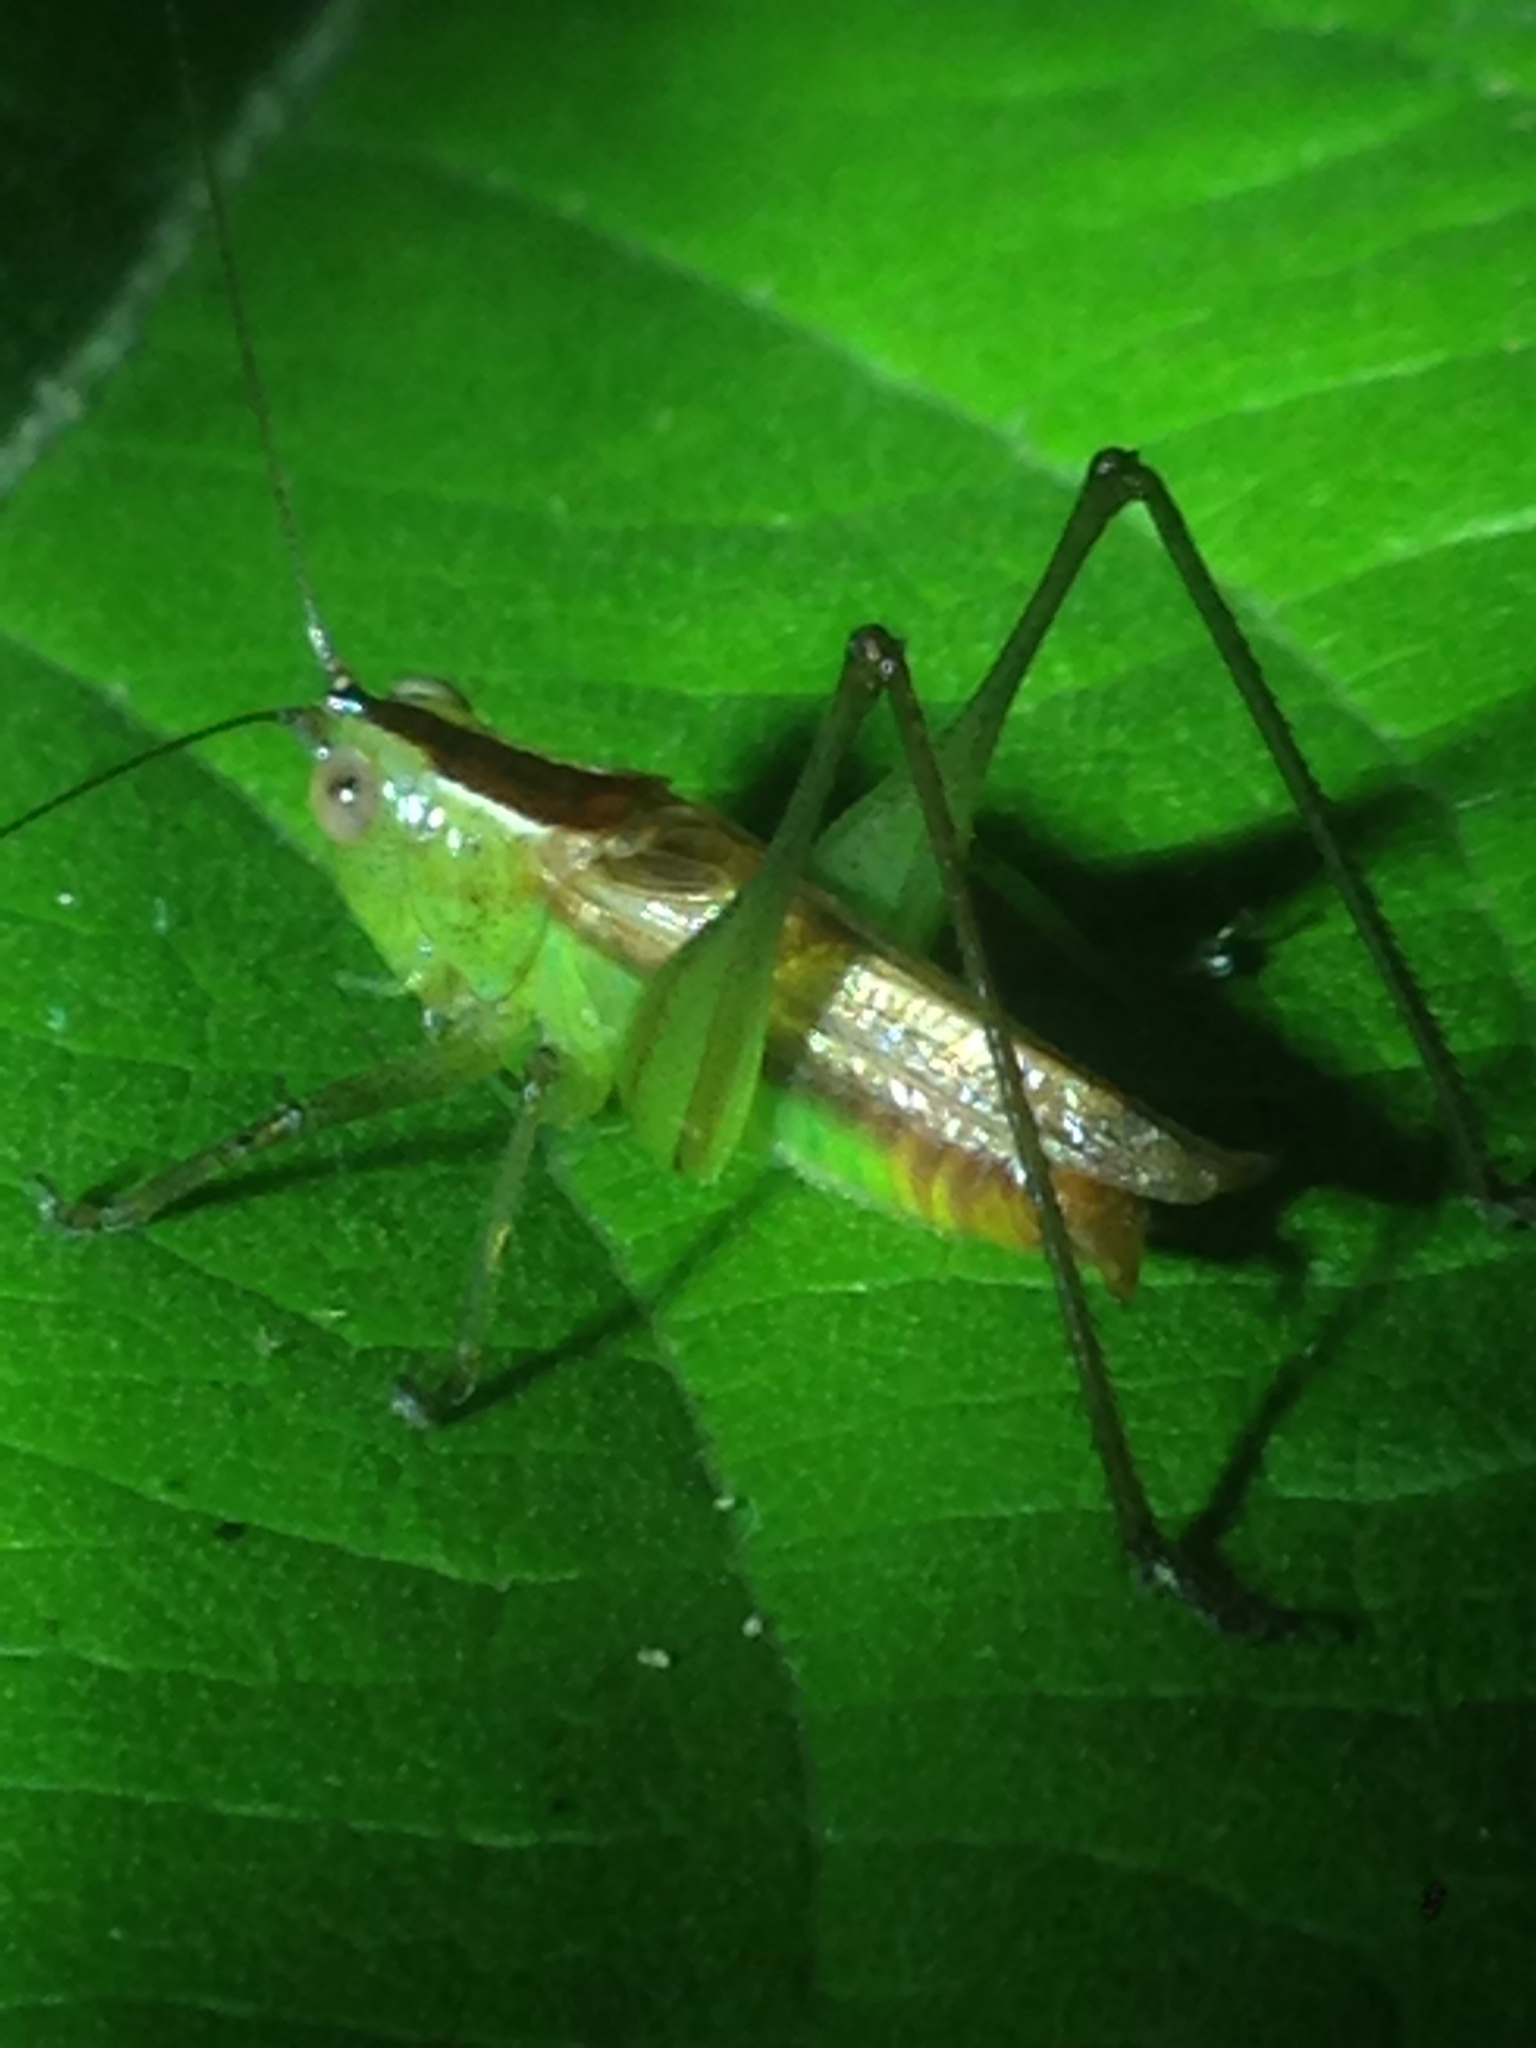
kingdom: Animalia
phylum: Arthropoda
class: Insecta
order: Orthoptera
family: Tettigoniidae
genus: Conocephalus
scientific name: Conocephalus brevipennis
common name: Short-winged meadow katydid
